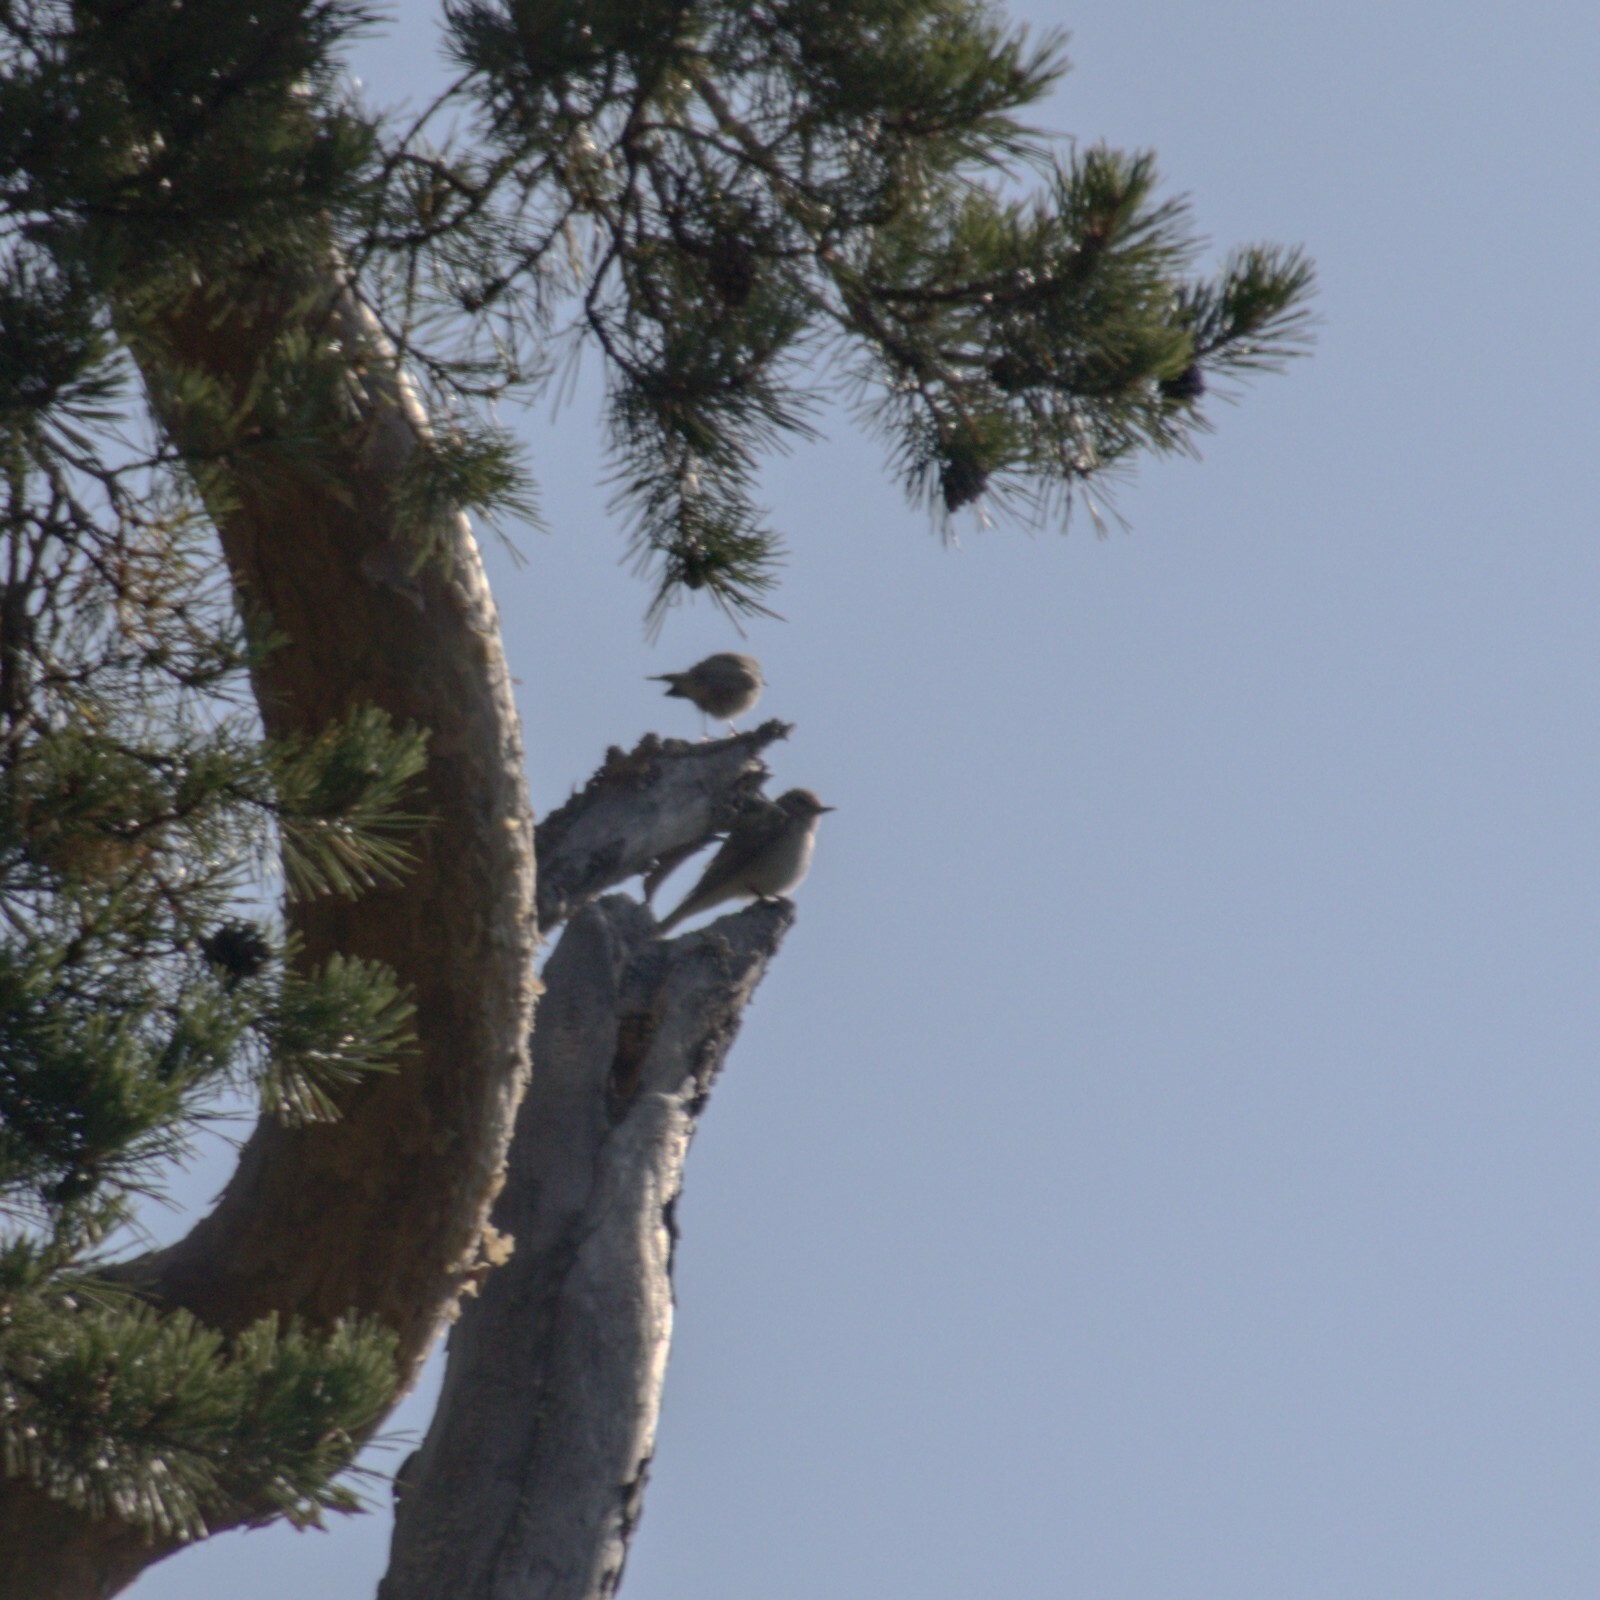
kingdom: Animalia
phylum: Chordata
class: Aves
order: Passeriformes
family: Muscicapidae
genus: Muscicapa
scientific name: Muscicapa striata
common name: Spotted flycatcher
